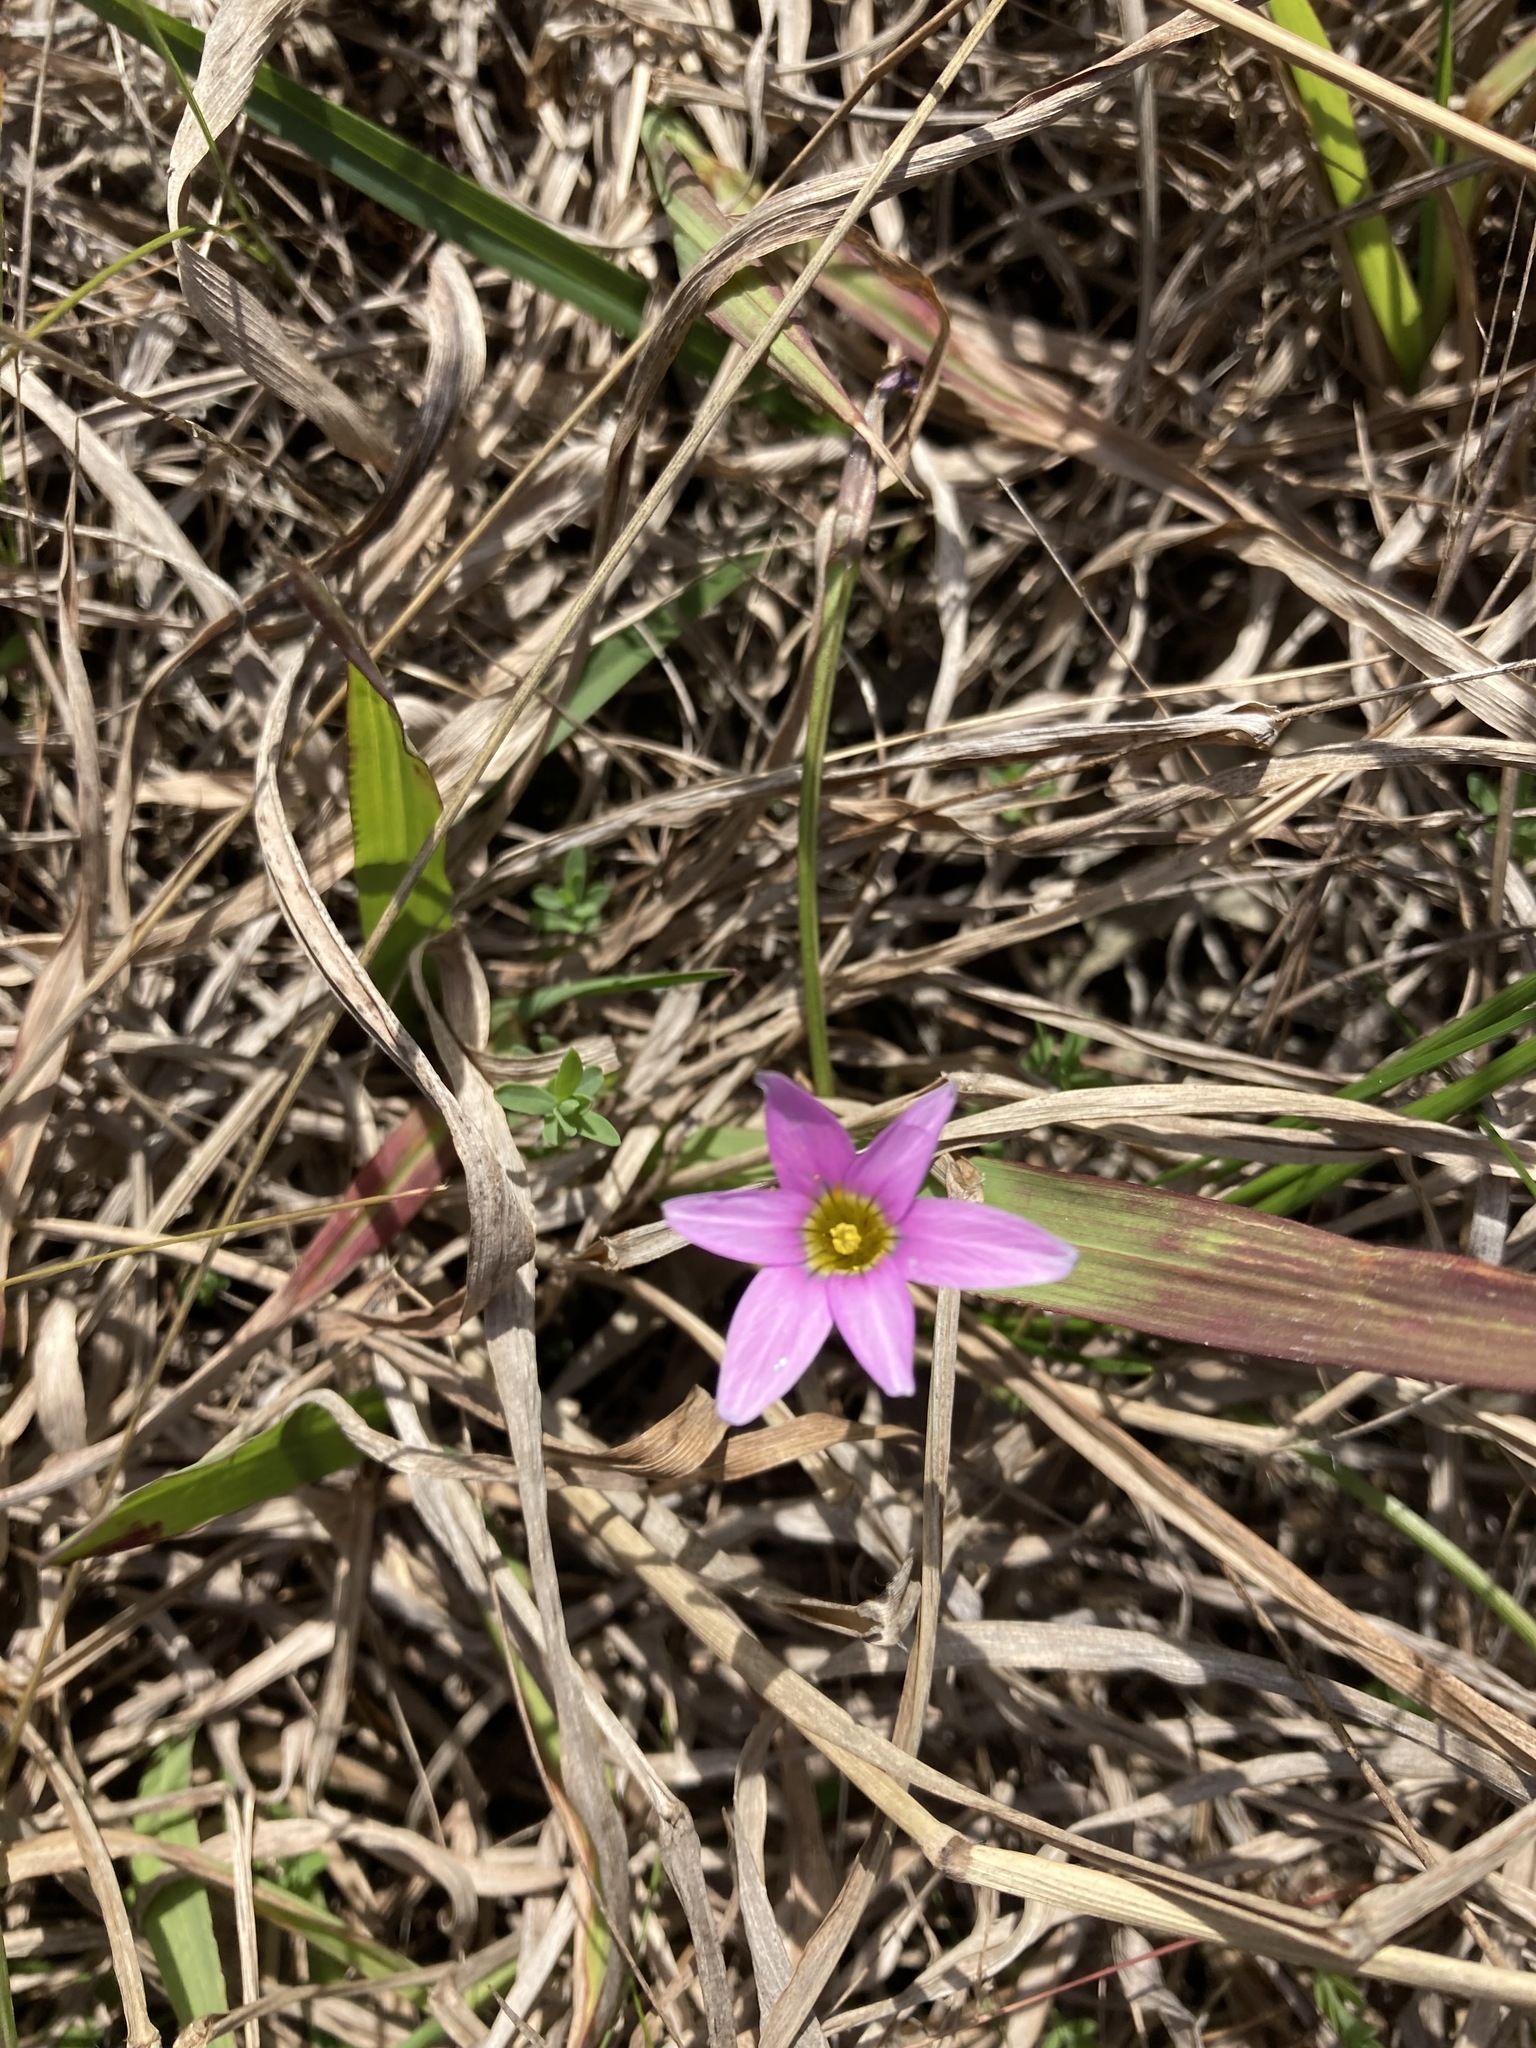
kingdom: Plantae
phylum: Tracheophyta
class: Liliopsida
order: Asparagales
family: Iridaceae
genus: Romulea
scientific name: Romulea rosea
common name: Oniongrass
